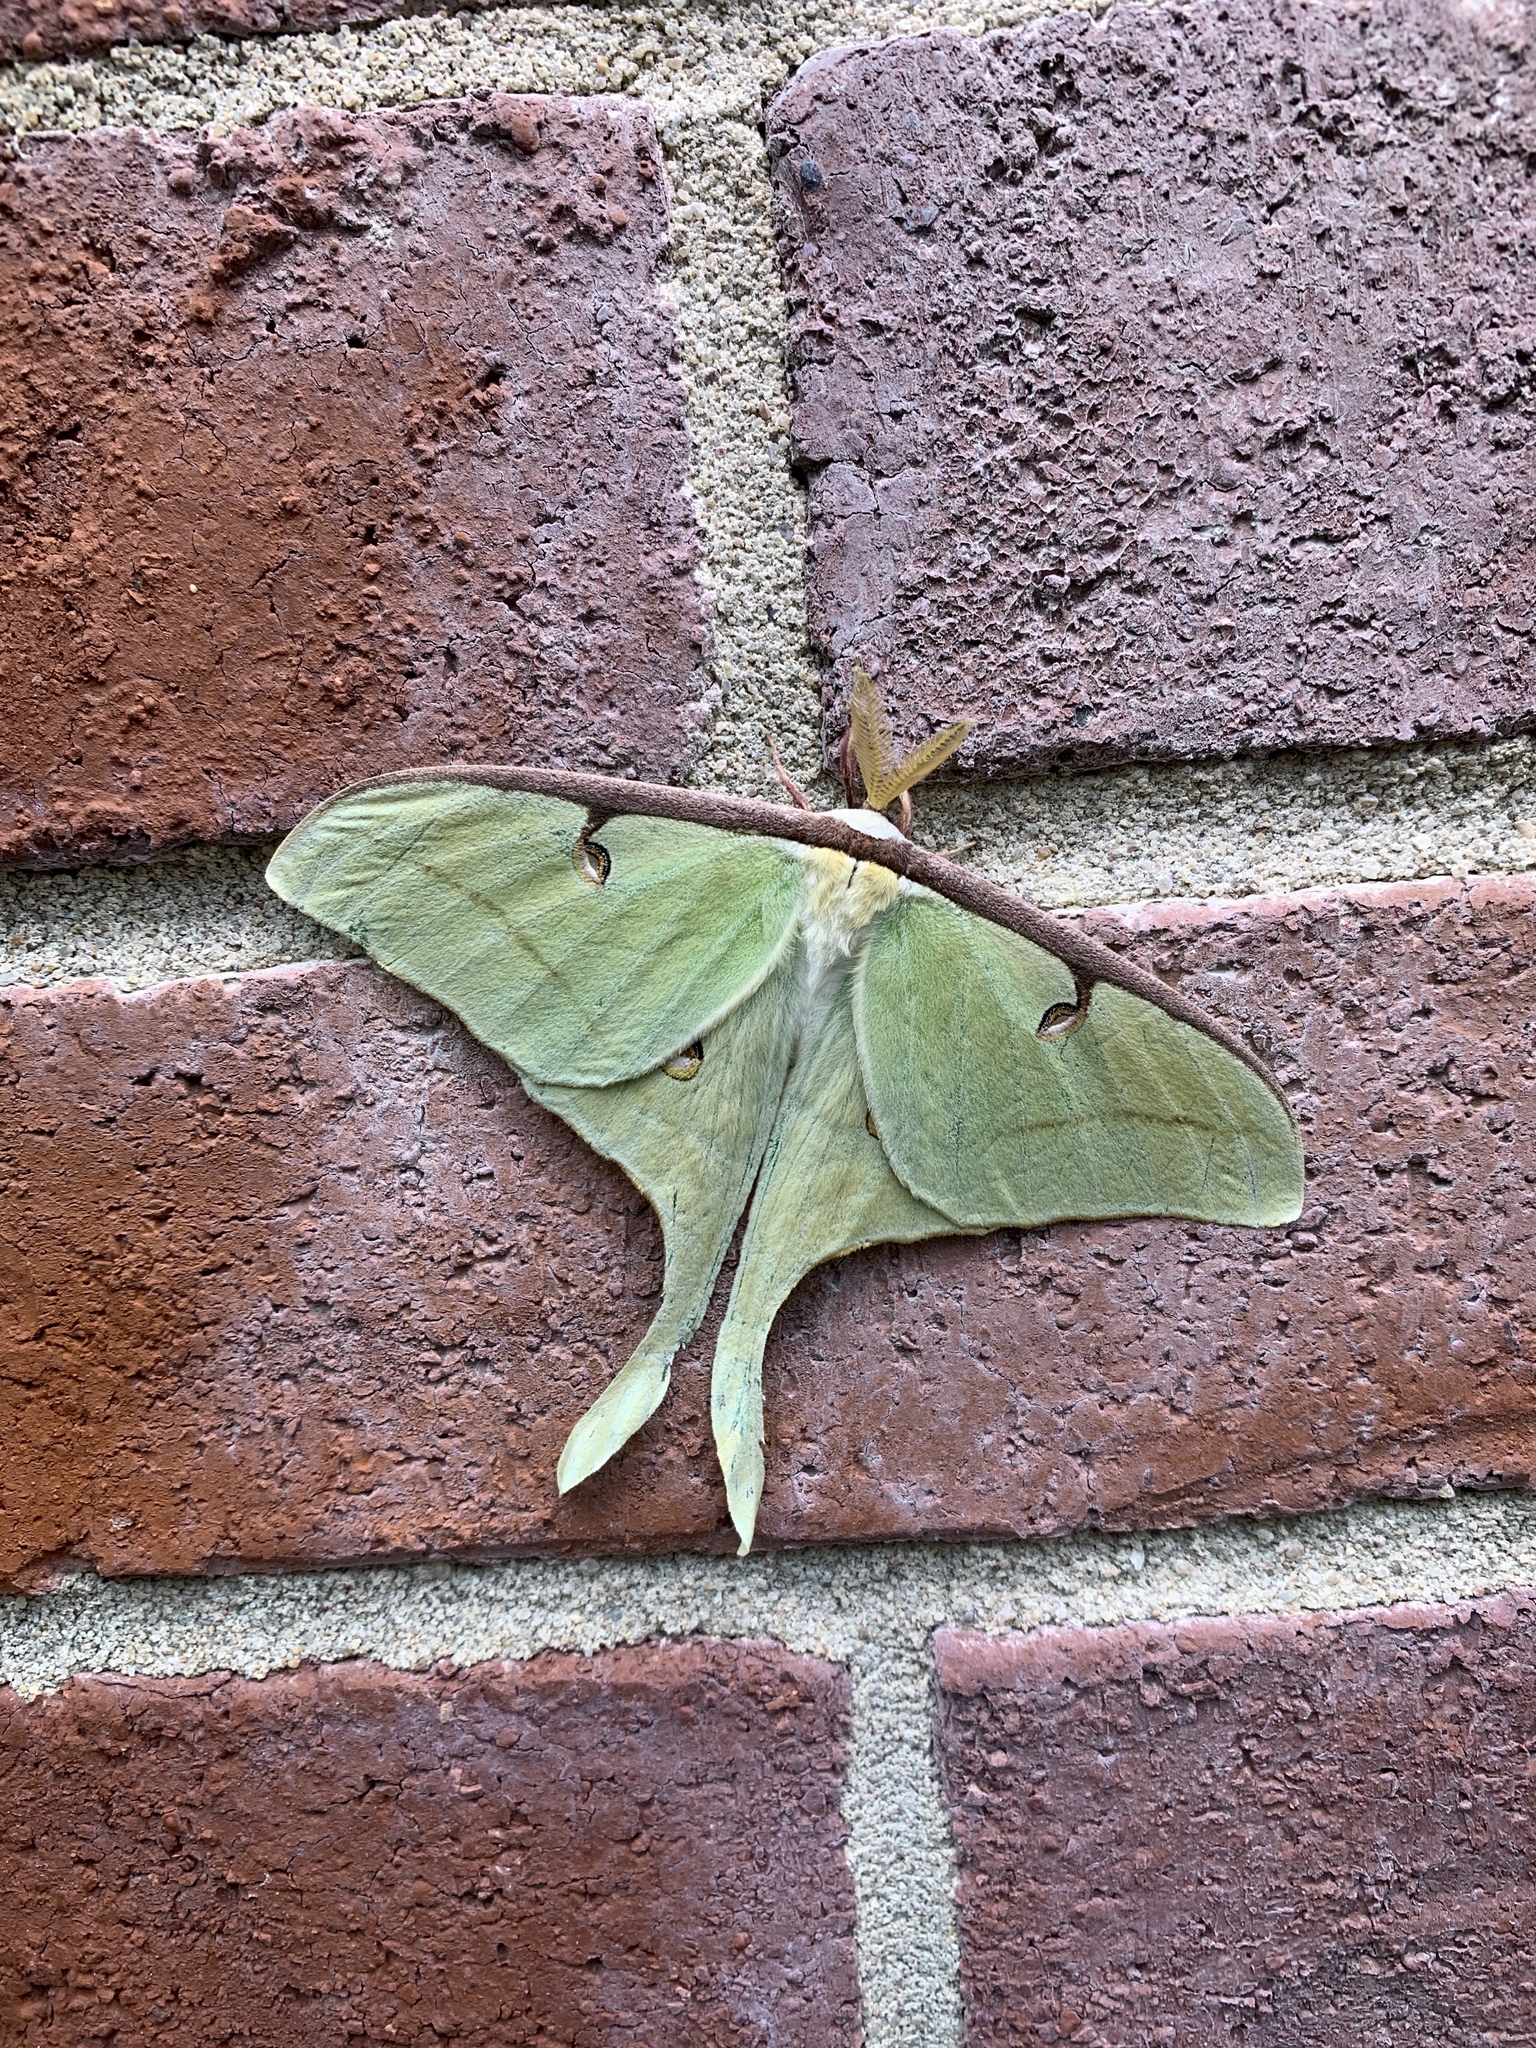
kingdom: Animalia
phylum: Arthropoda
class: Insecta
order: Lepidoptera
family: Saturniidae
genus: Actias
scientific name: Actias luna
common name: Luna moth
